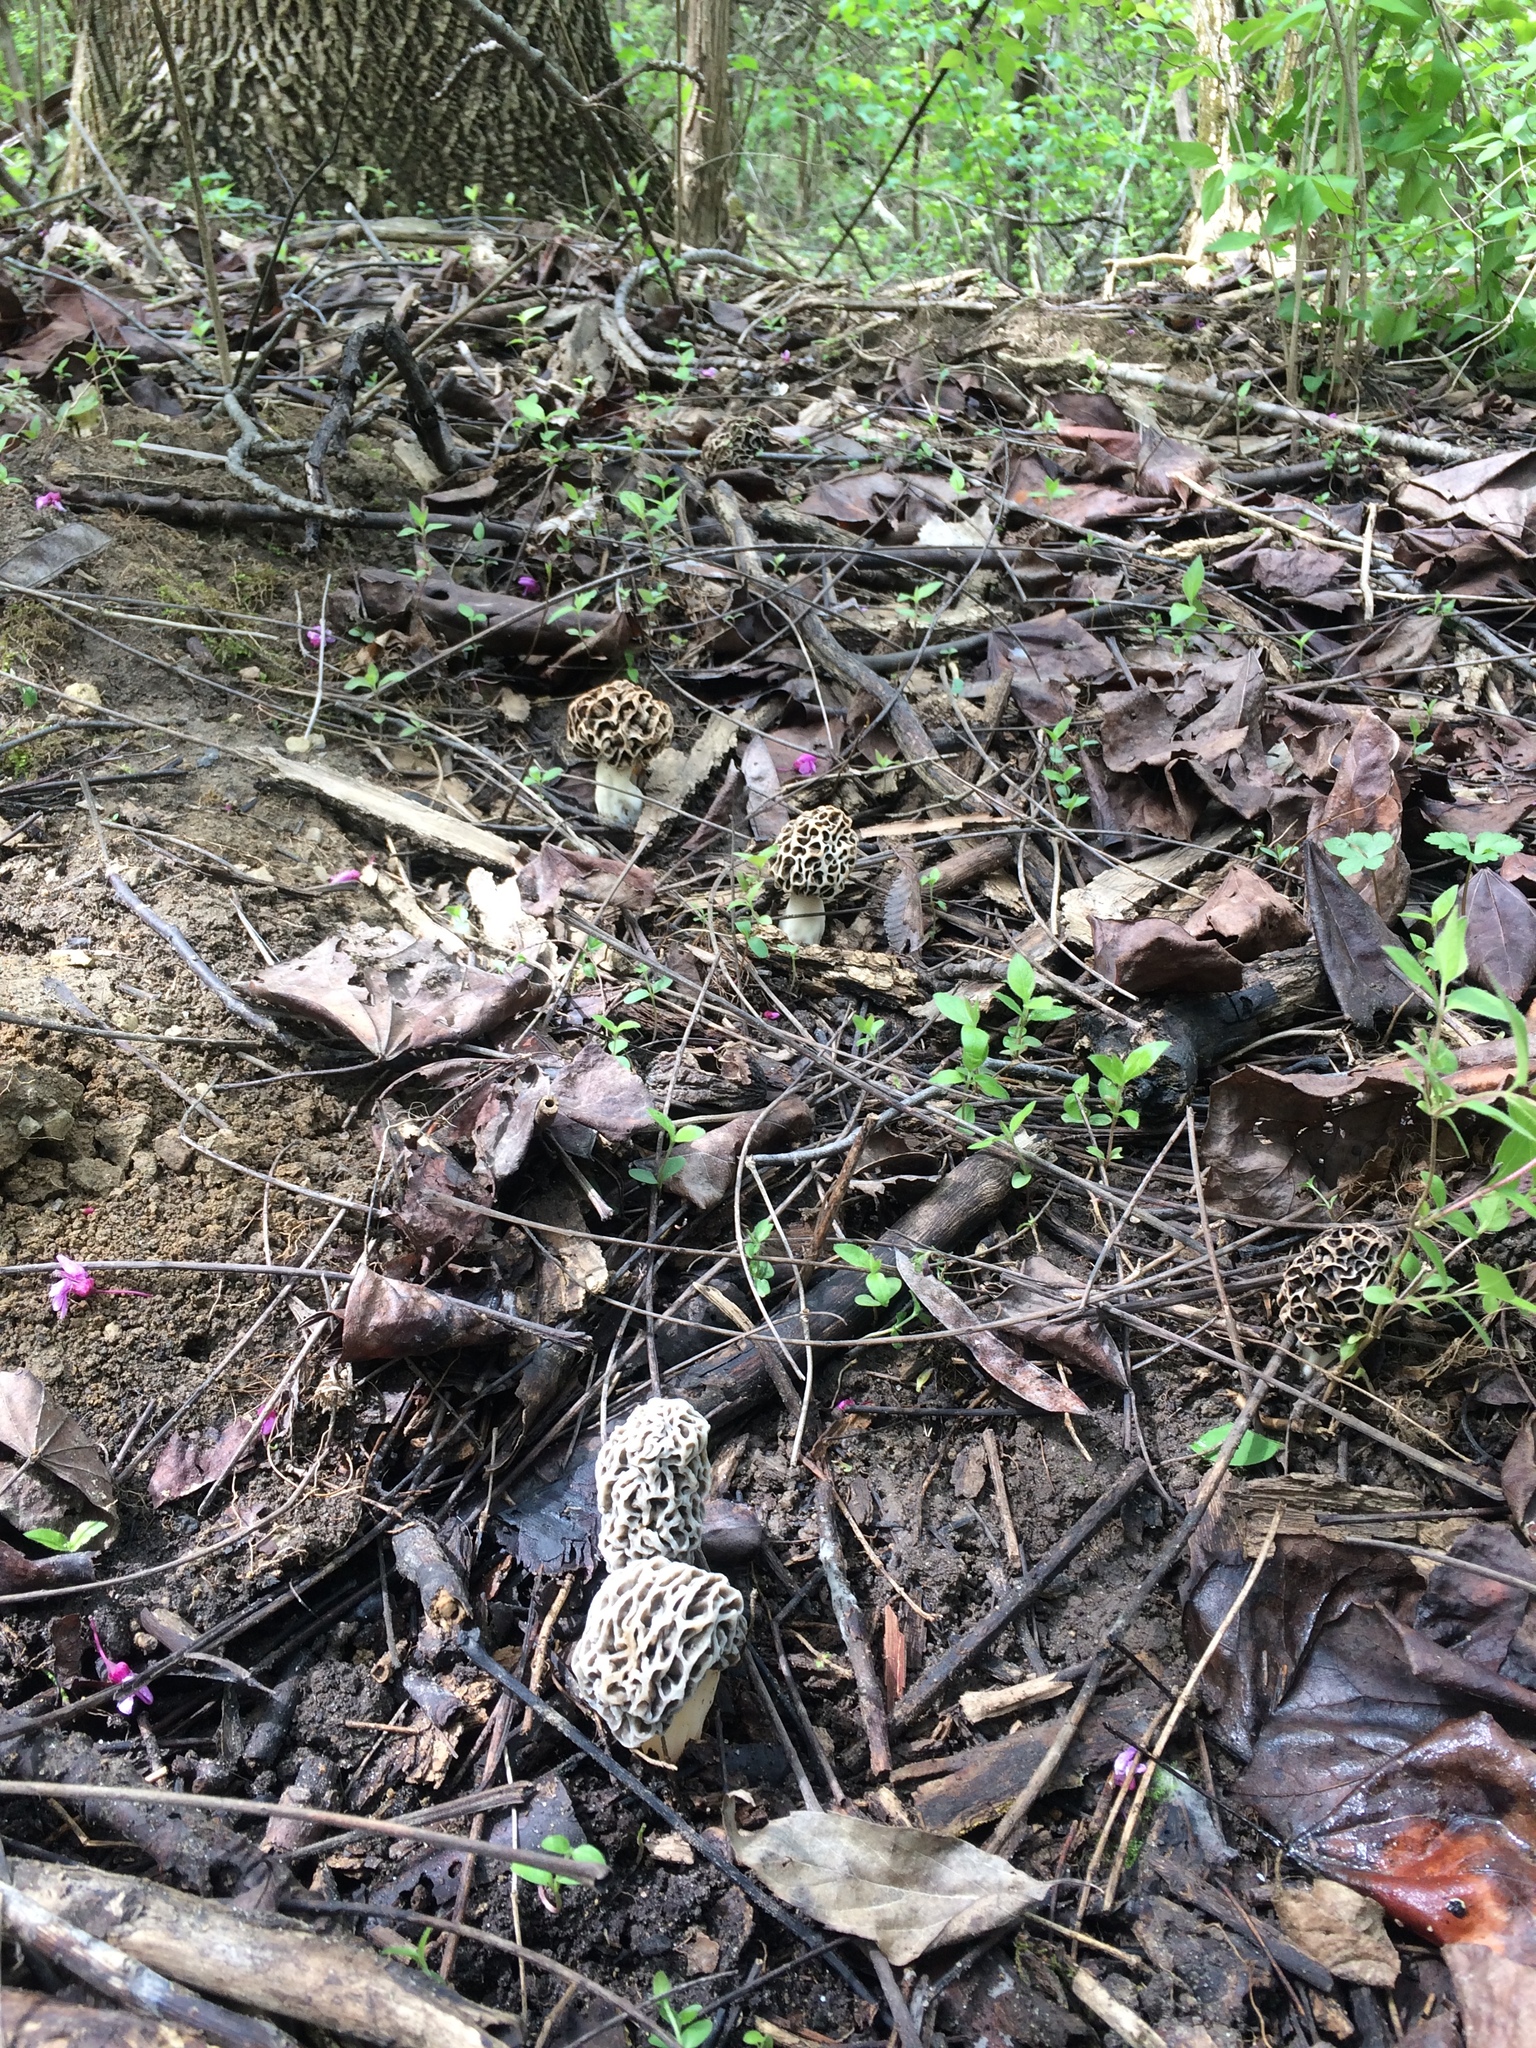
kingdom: Fungi
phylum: Ascomycota
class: Pezizomycetes
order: Pezizales
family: Morchellaceae
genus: Morchella
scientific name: Morchella americana
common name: White morel
